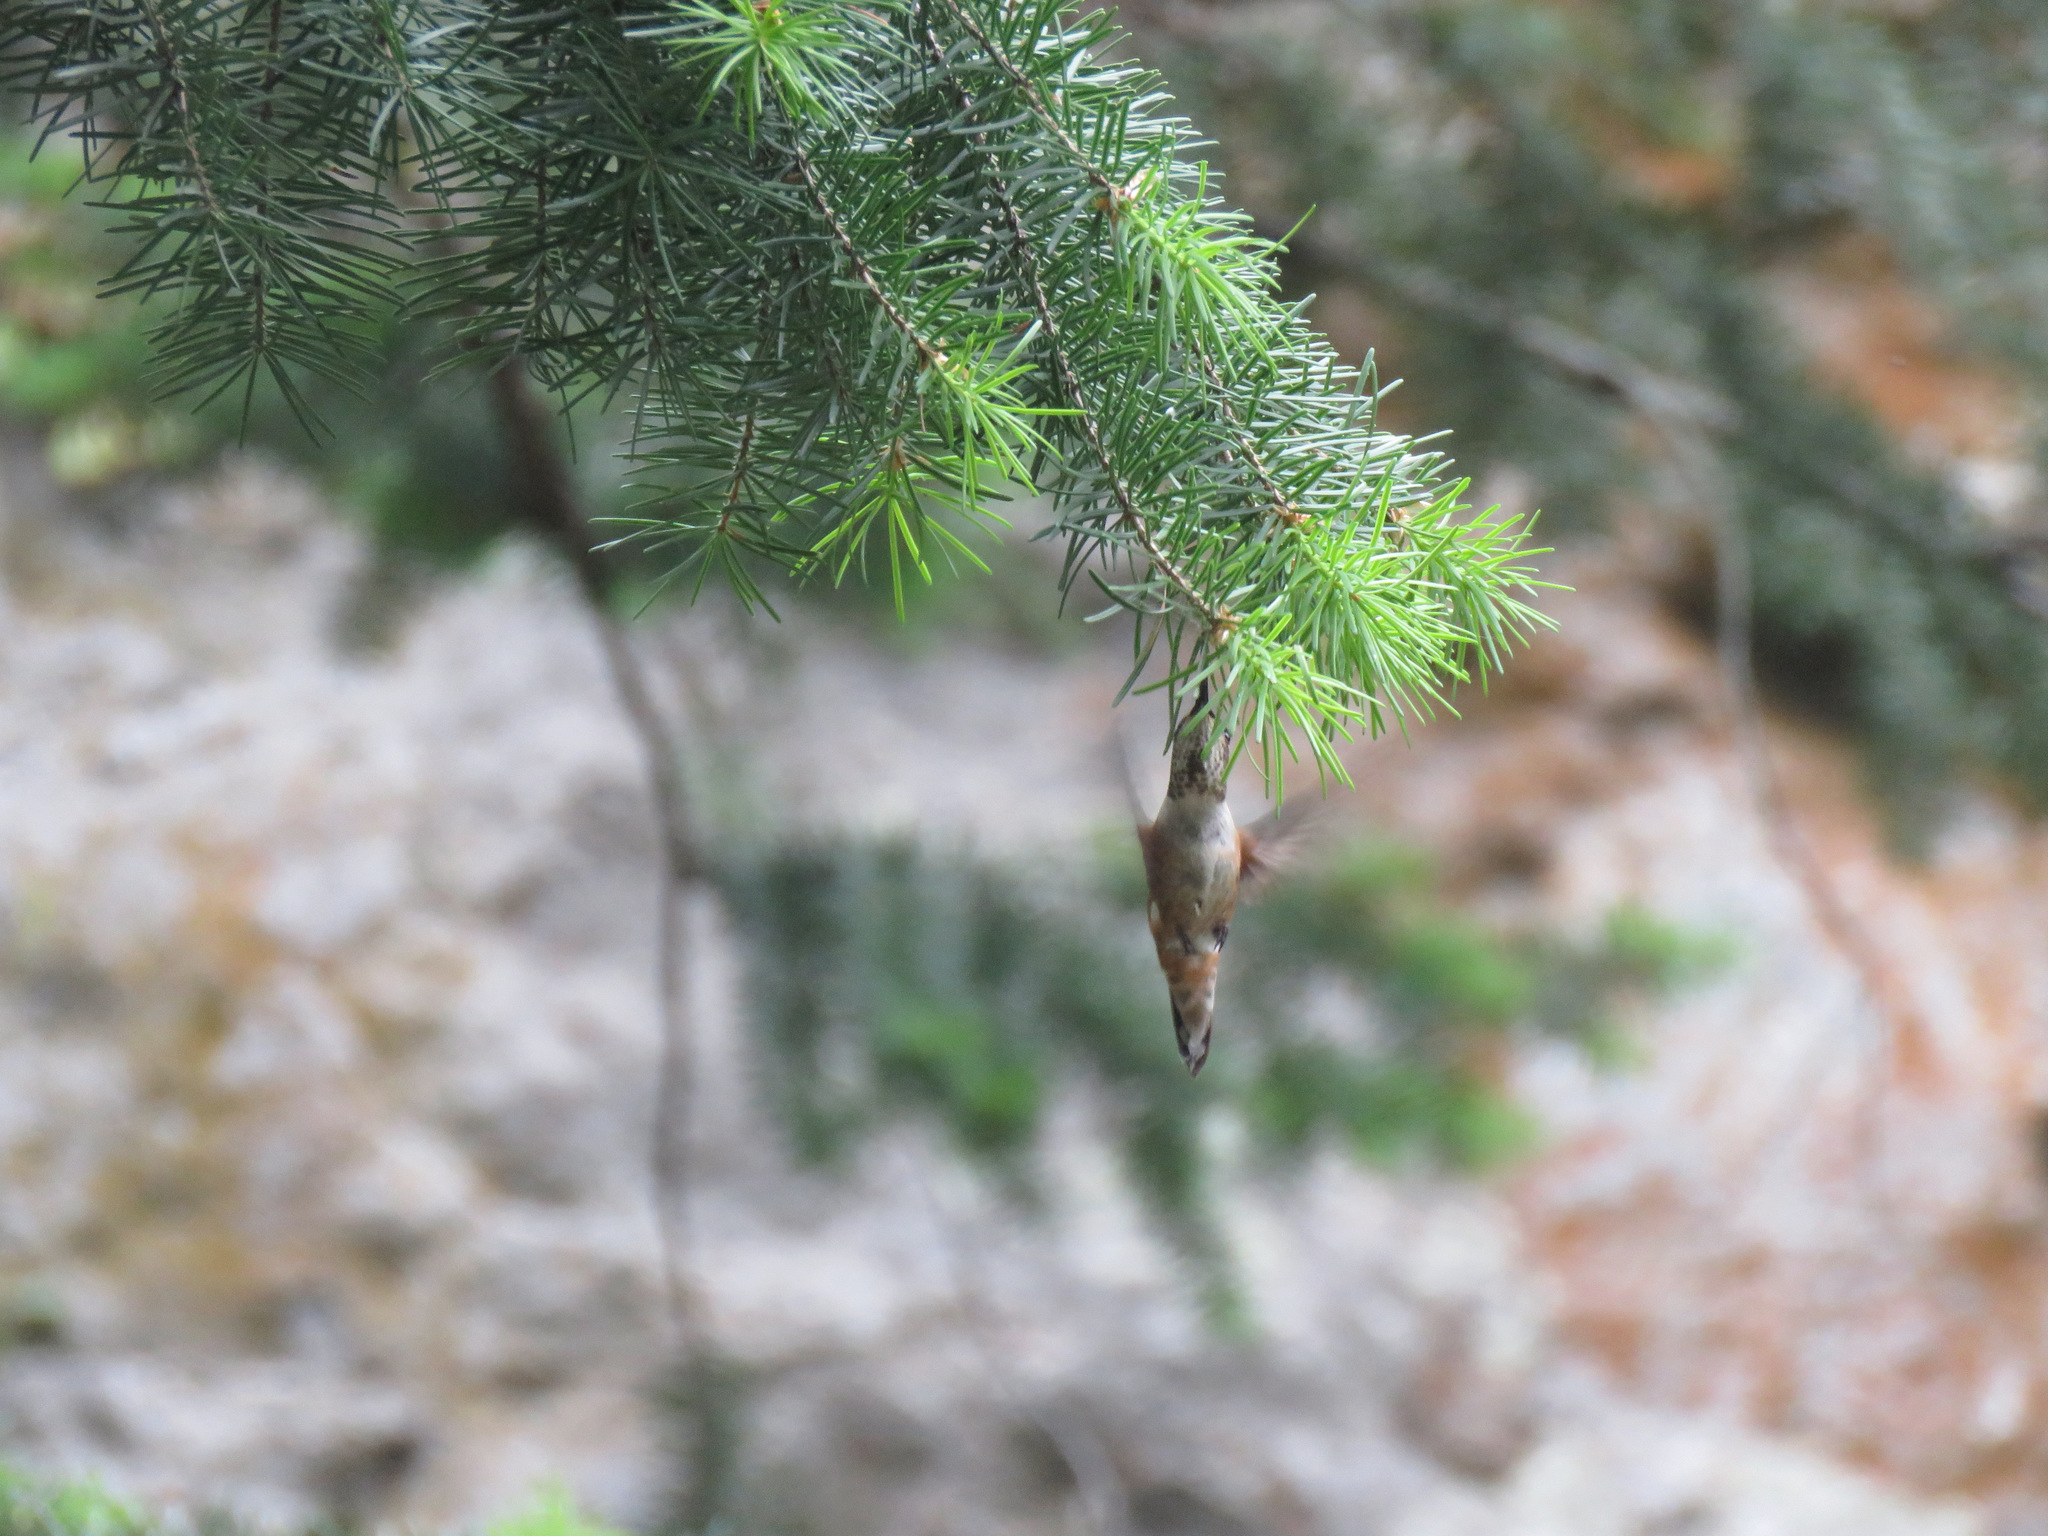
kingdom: Animalia
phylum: Chordata
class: Aves
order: Apodiformes
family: Trochilidae
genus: Selasphorus
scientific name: Selasphorus rufus
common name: Rufous hummingbird
